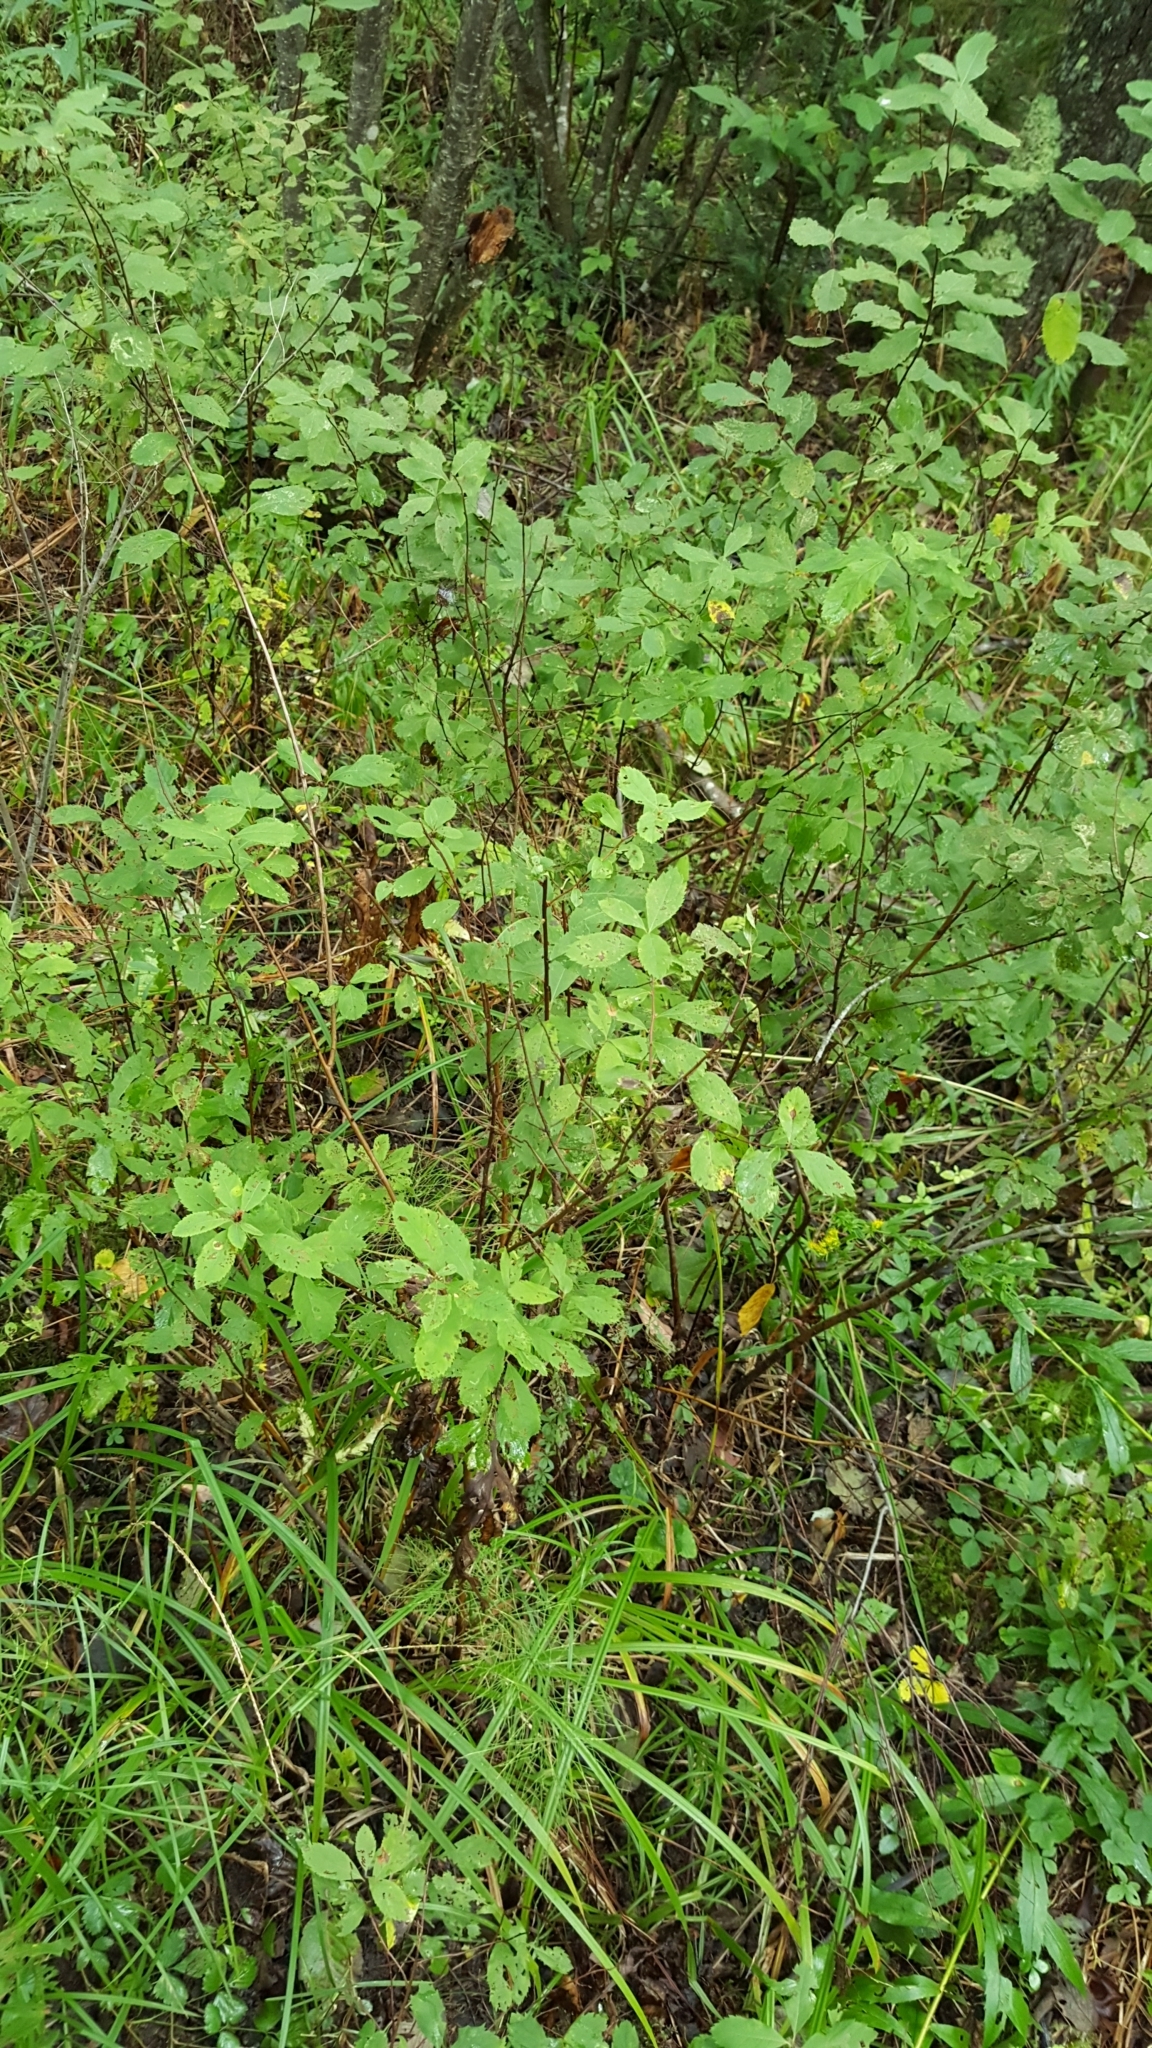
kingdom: Plantae
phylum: Tracheophyta
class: Magnoliopsida
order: Rosales
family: Rosaceae
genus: Spiraea
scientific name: Spiraea alba
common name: Pale bridewort
